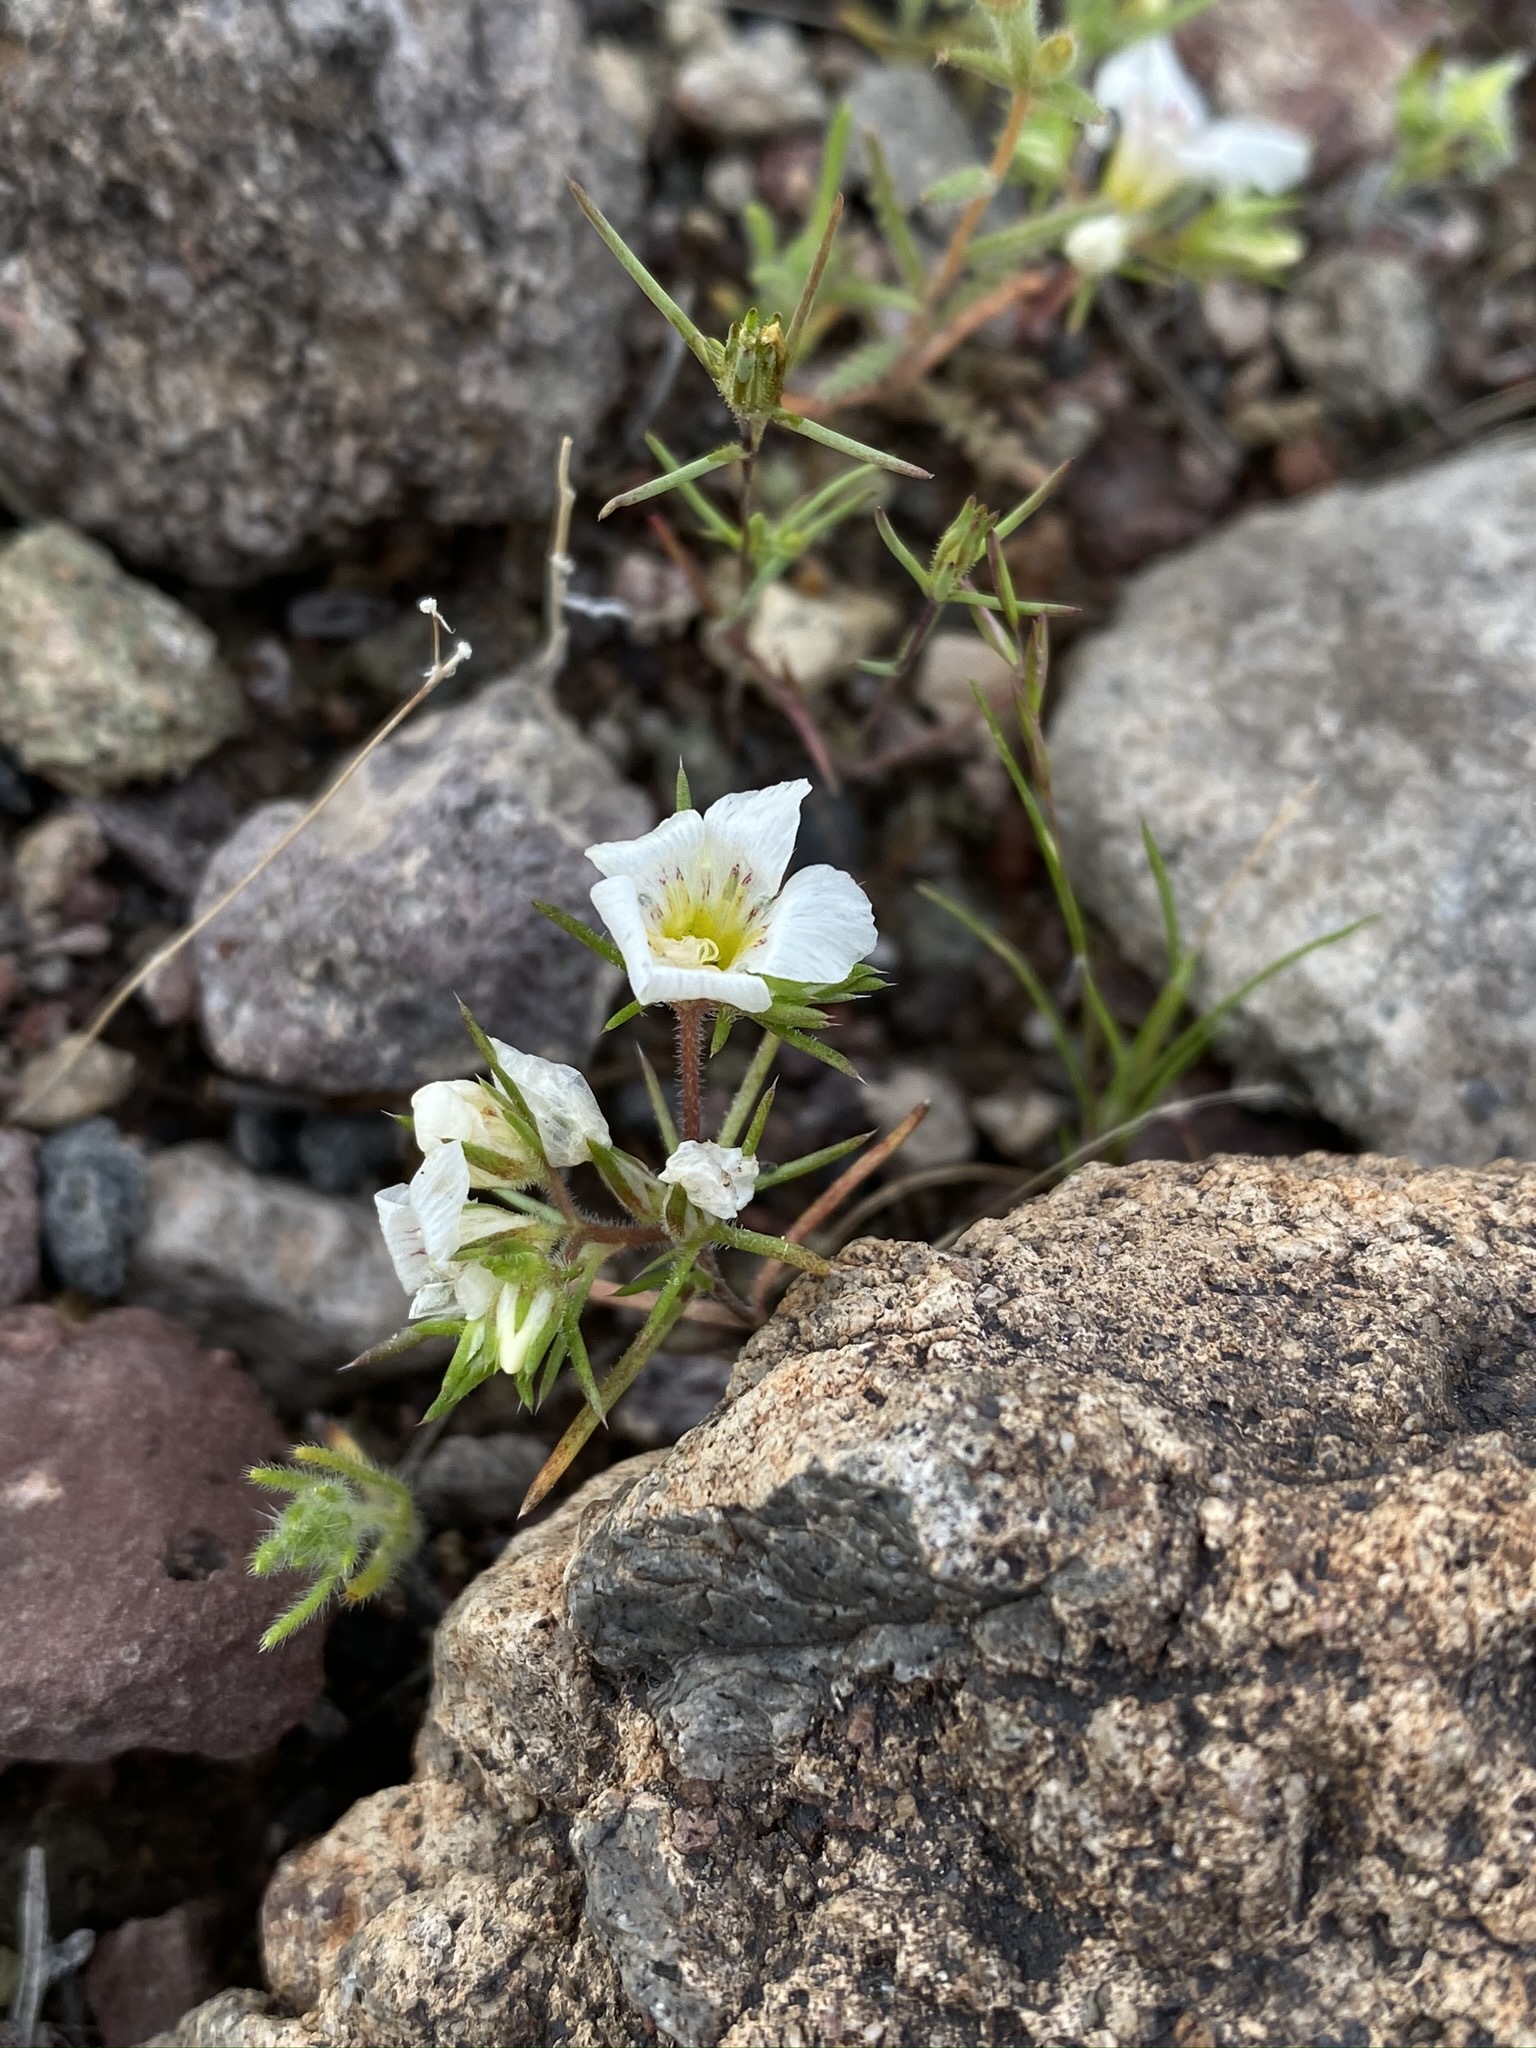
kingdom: Plantae
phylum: Tracheophyta
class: Magnoliopsida
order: Ericales
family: Polemoniaceae
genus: Linanthus
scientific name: Linanthus demissus
